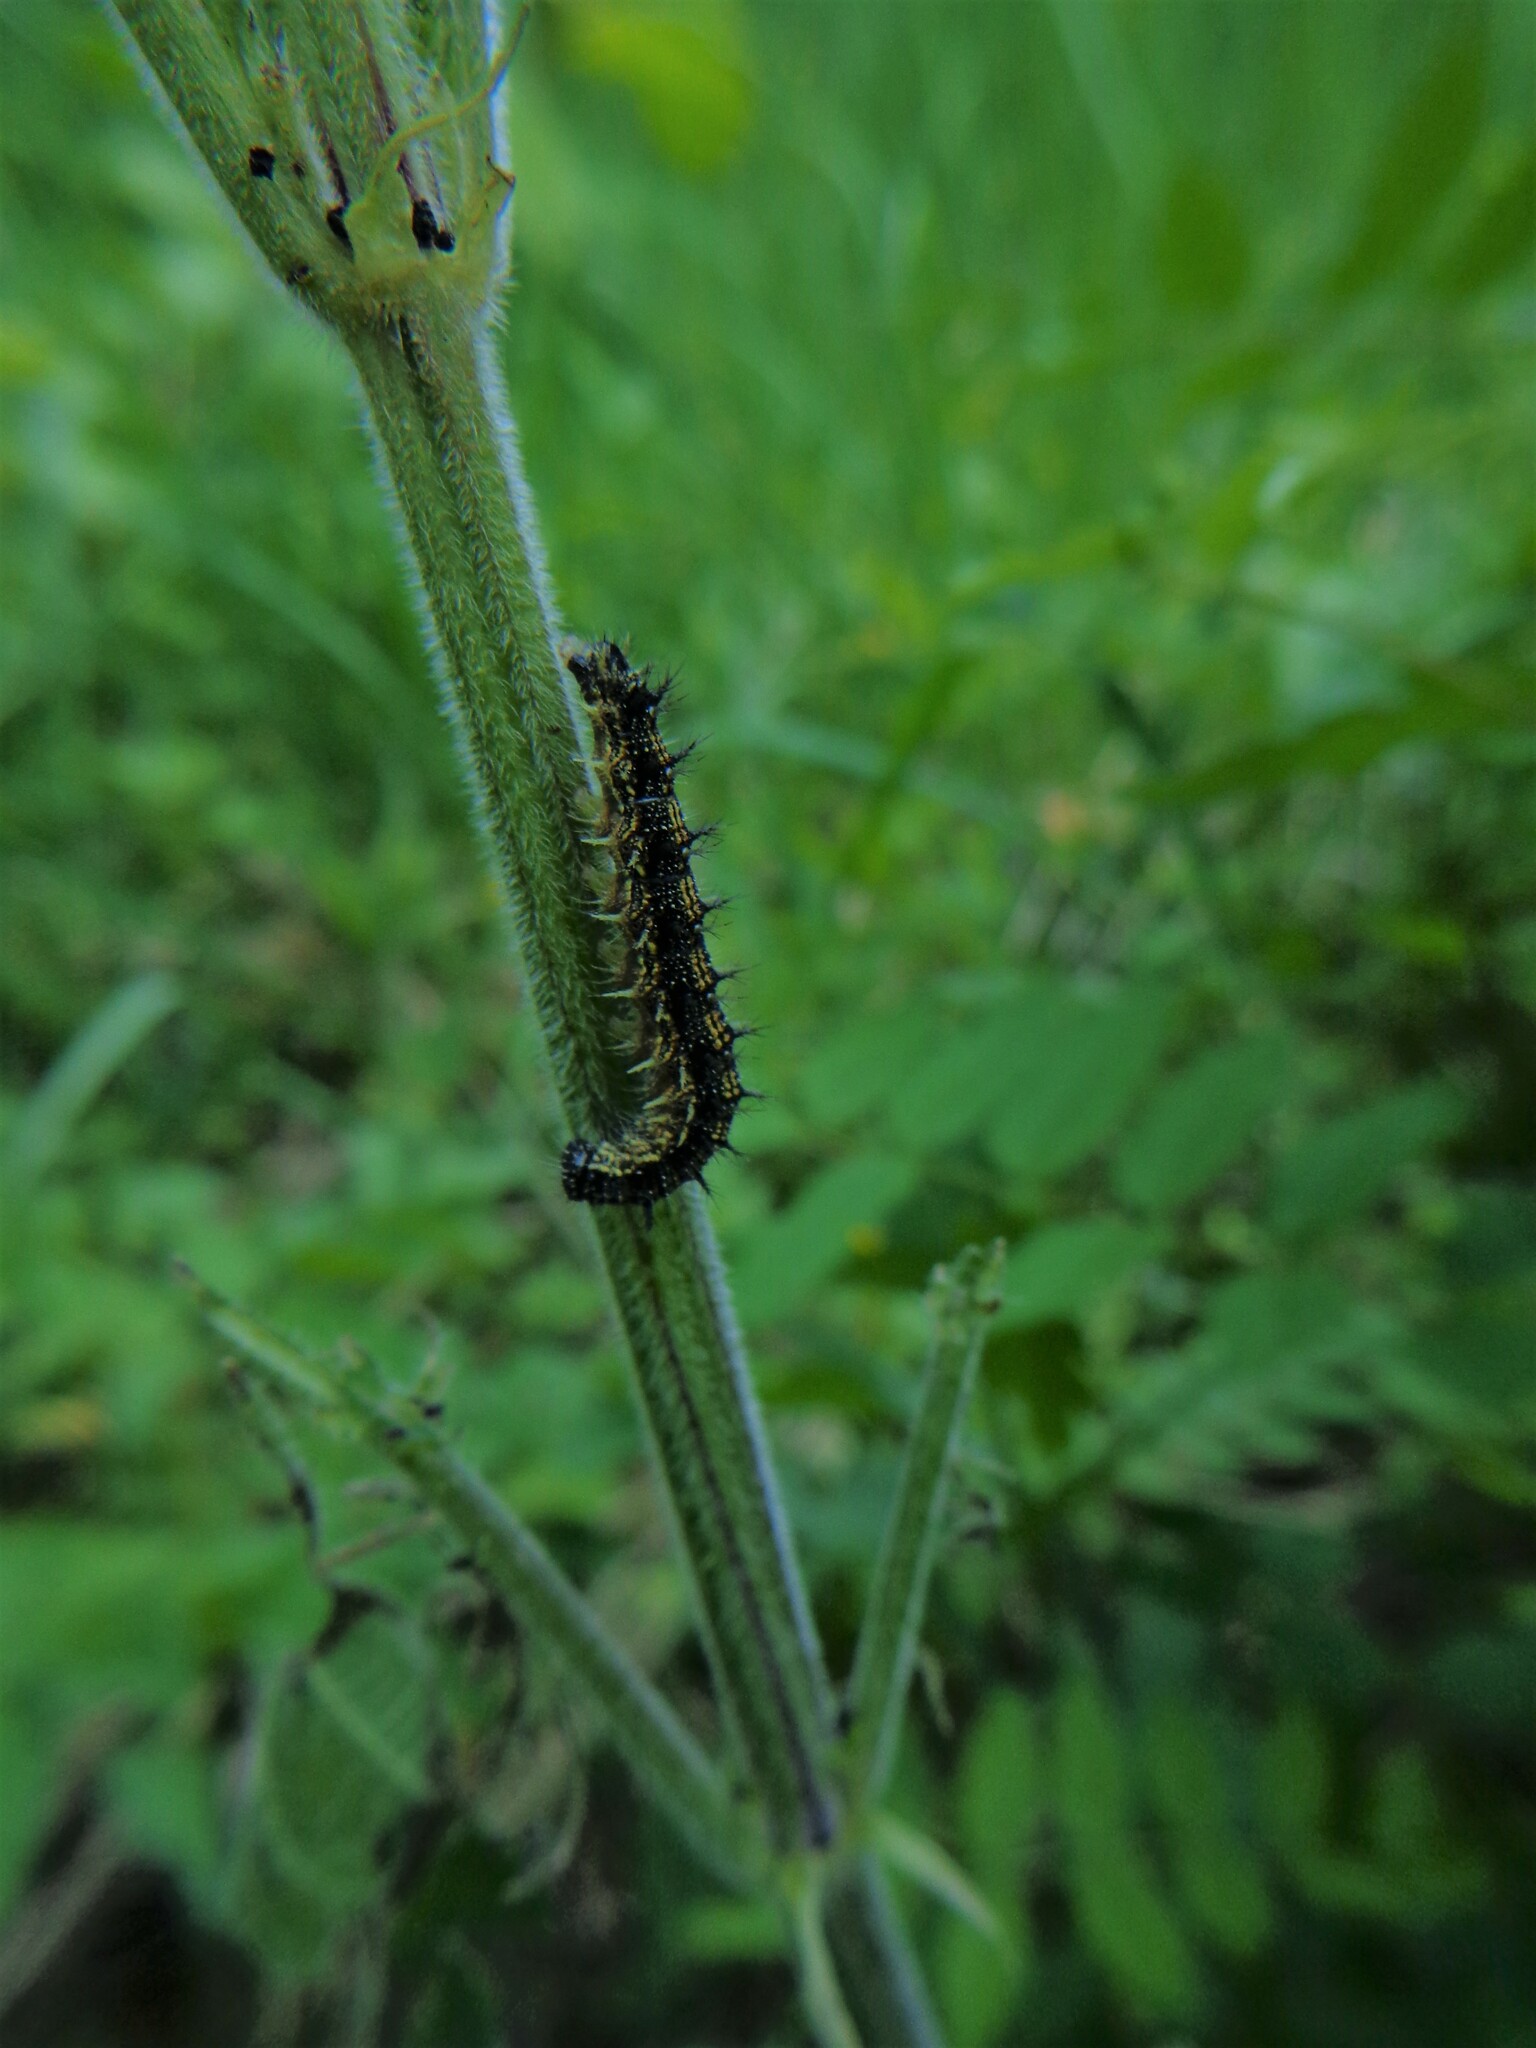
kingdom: Animalia
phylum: Arthropoda
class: Insecta
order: Lepidoptera
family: Nymphalidae
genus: Aglais
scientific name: Aglais urticae
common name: Small tortoiseshell
